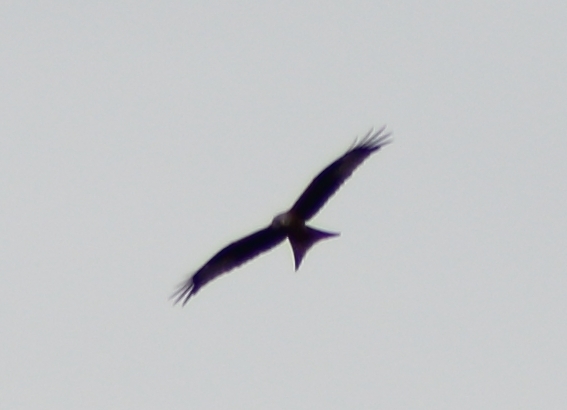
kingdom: Animalia
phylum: Chordata
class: Aves
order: Accipitriformes
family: Accipitridae
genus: Milvus
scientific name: Milvus milvus
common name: Red kite
